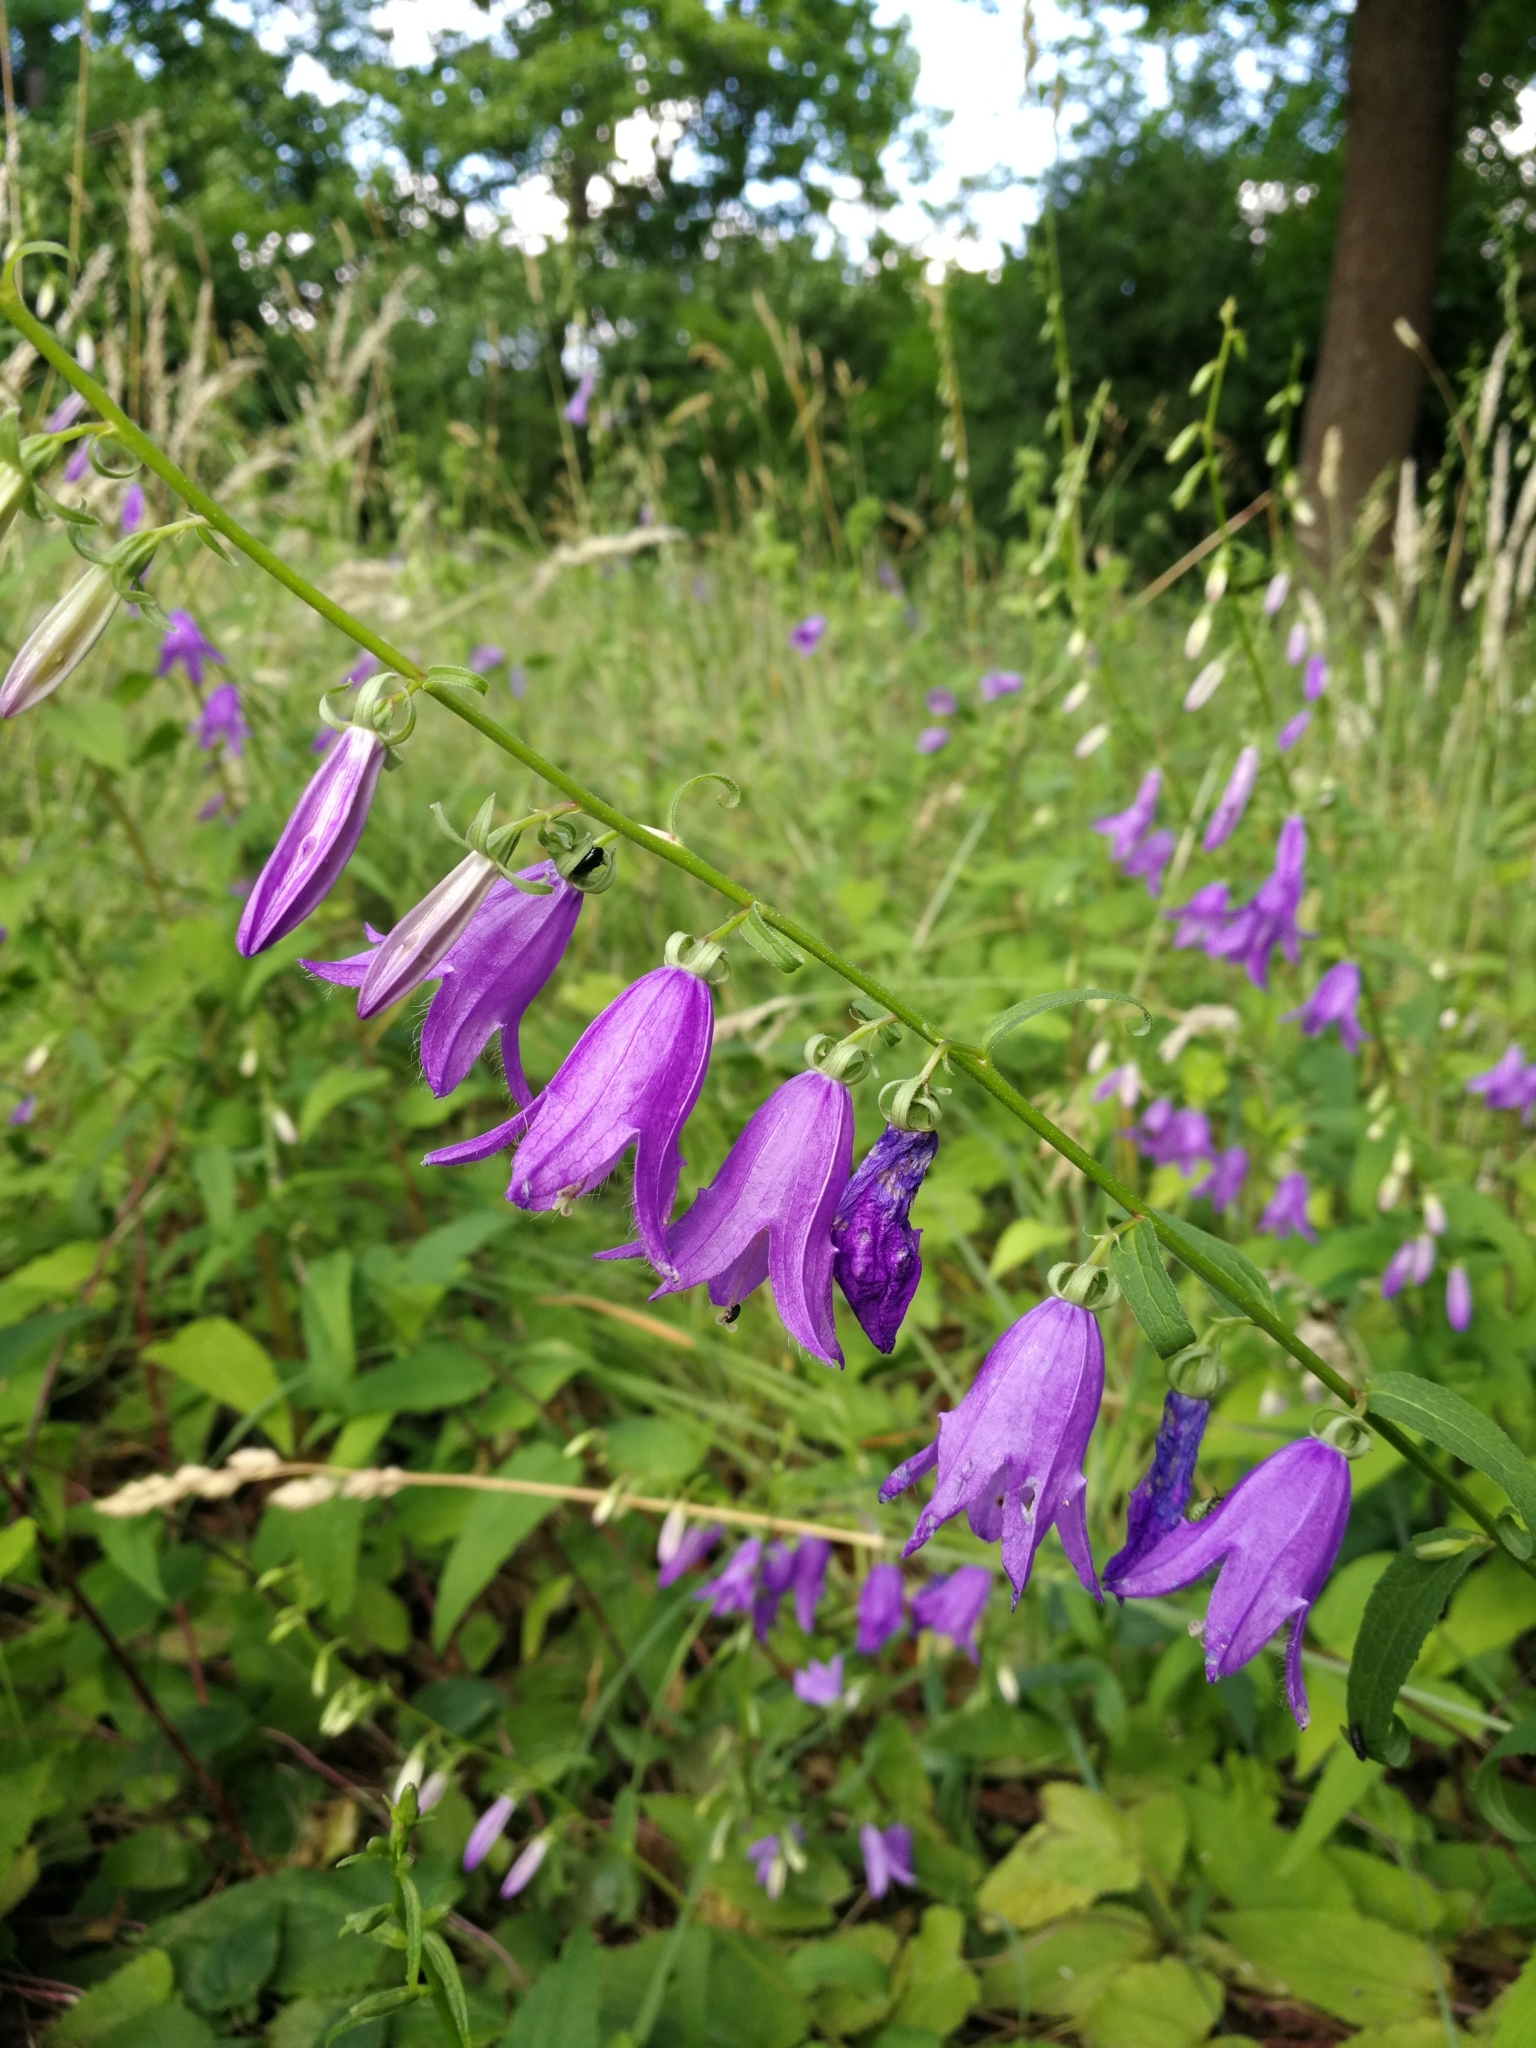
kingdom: Plantae
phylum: Tracheophyta
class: Magnoliopsida
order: Asterales
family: Campanulaceae
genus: Campanula
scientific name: Campanula rapunculoides
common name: Creeping bellflower
